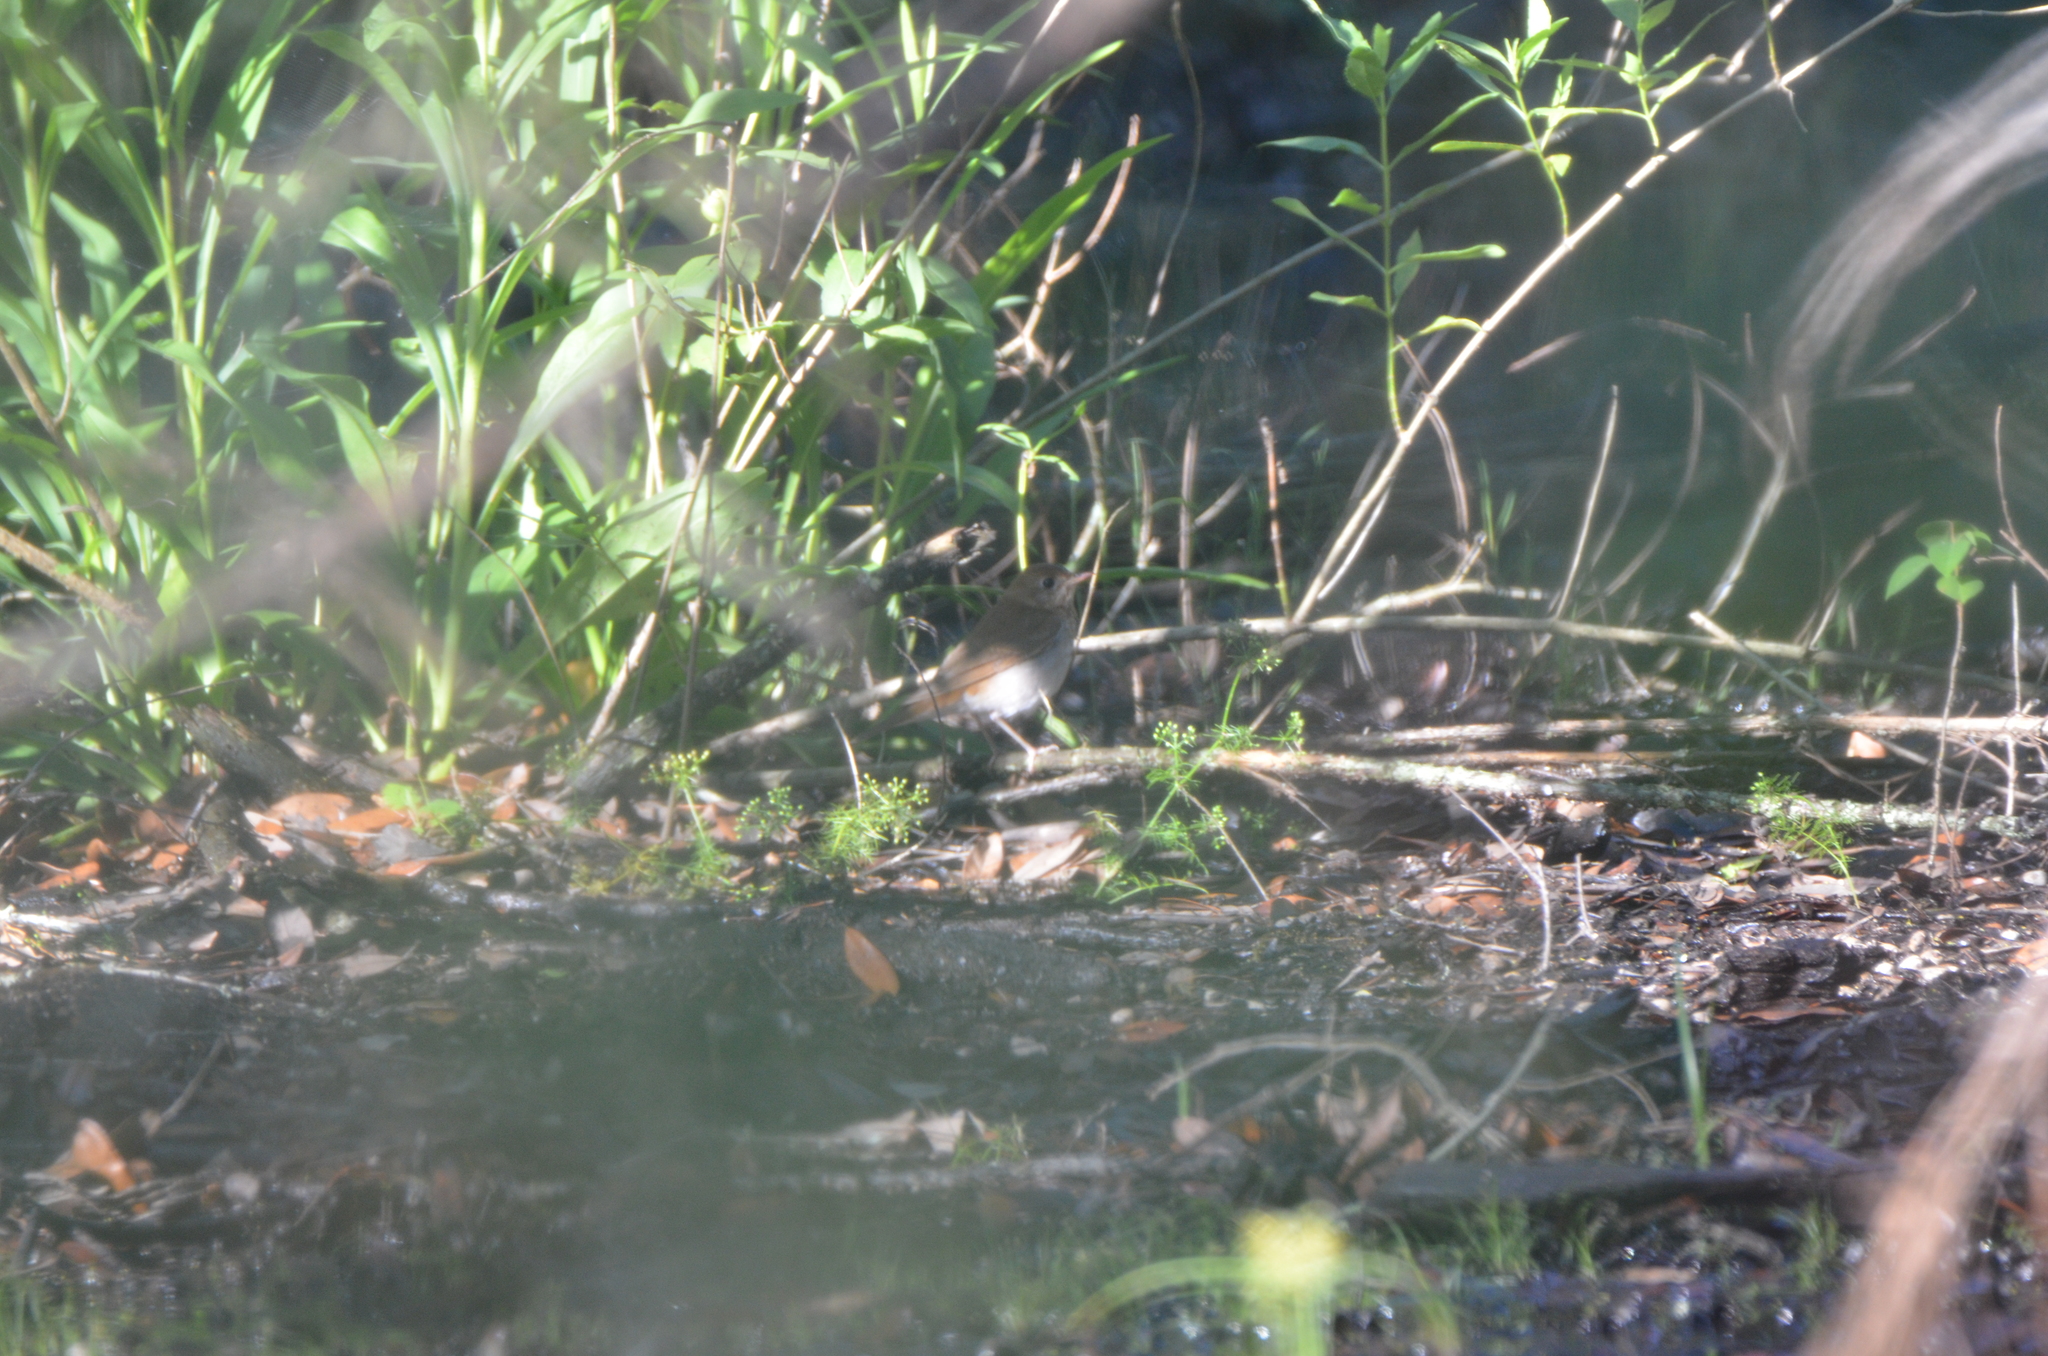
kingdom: Animalia
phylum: Chordata
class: Aves
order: Passeriformes
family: Turdidae
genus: Catharus
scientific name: Catharus fuscescens
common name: Veery
